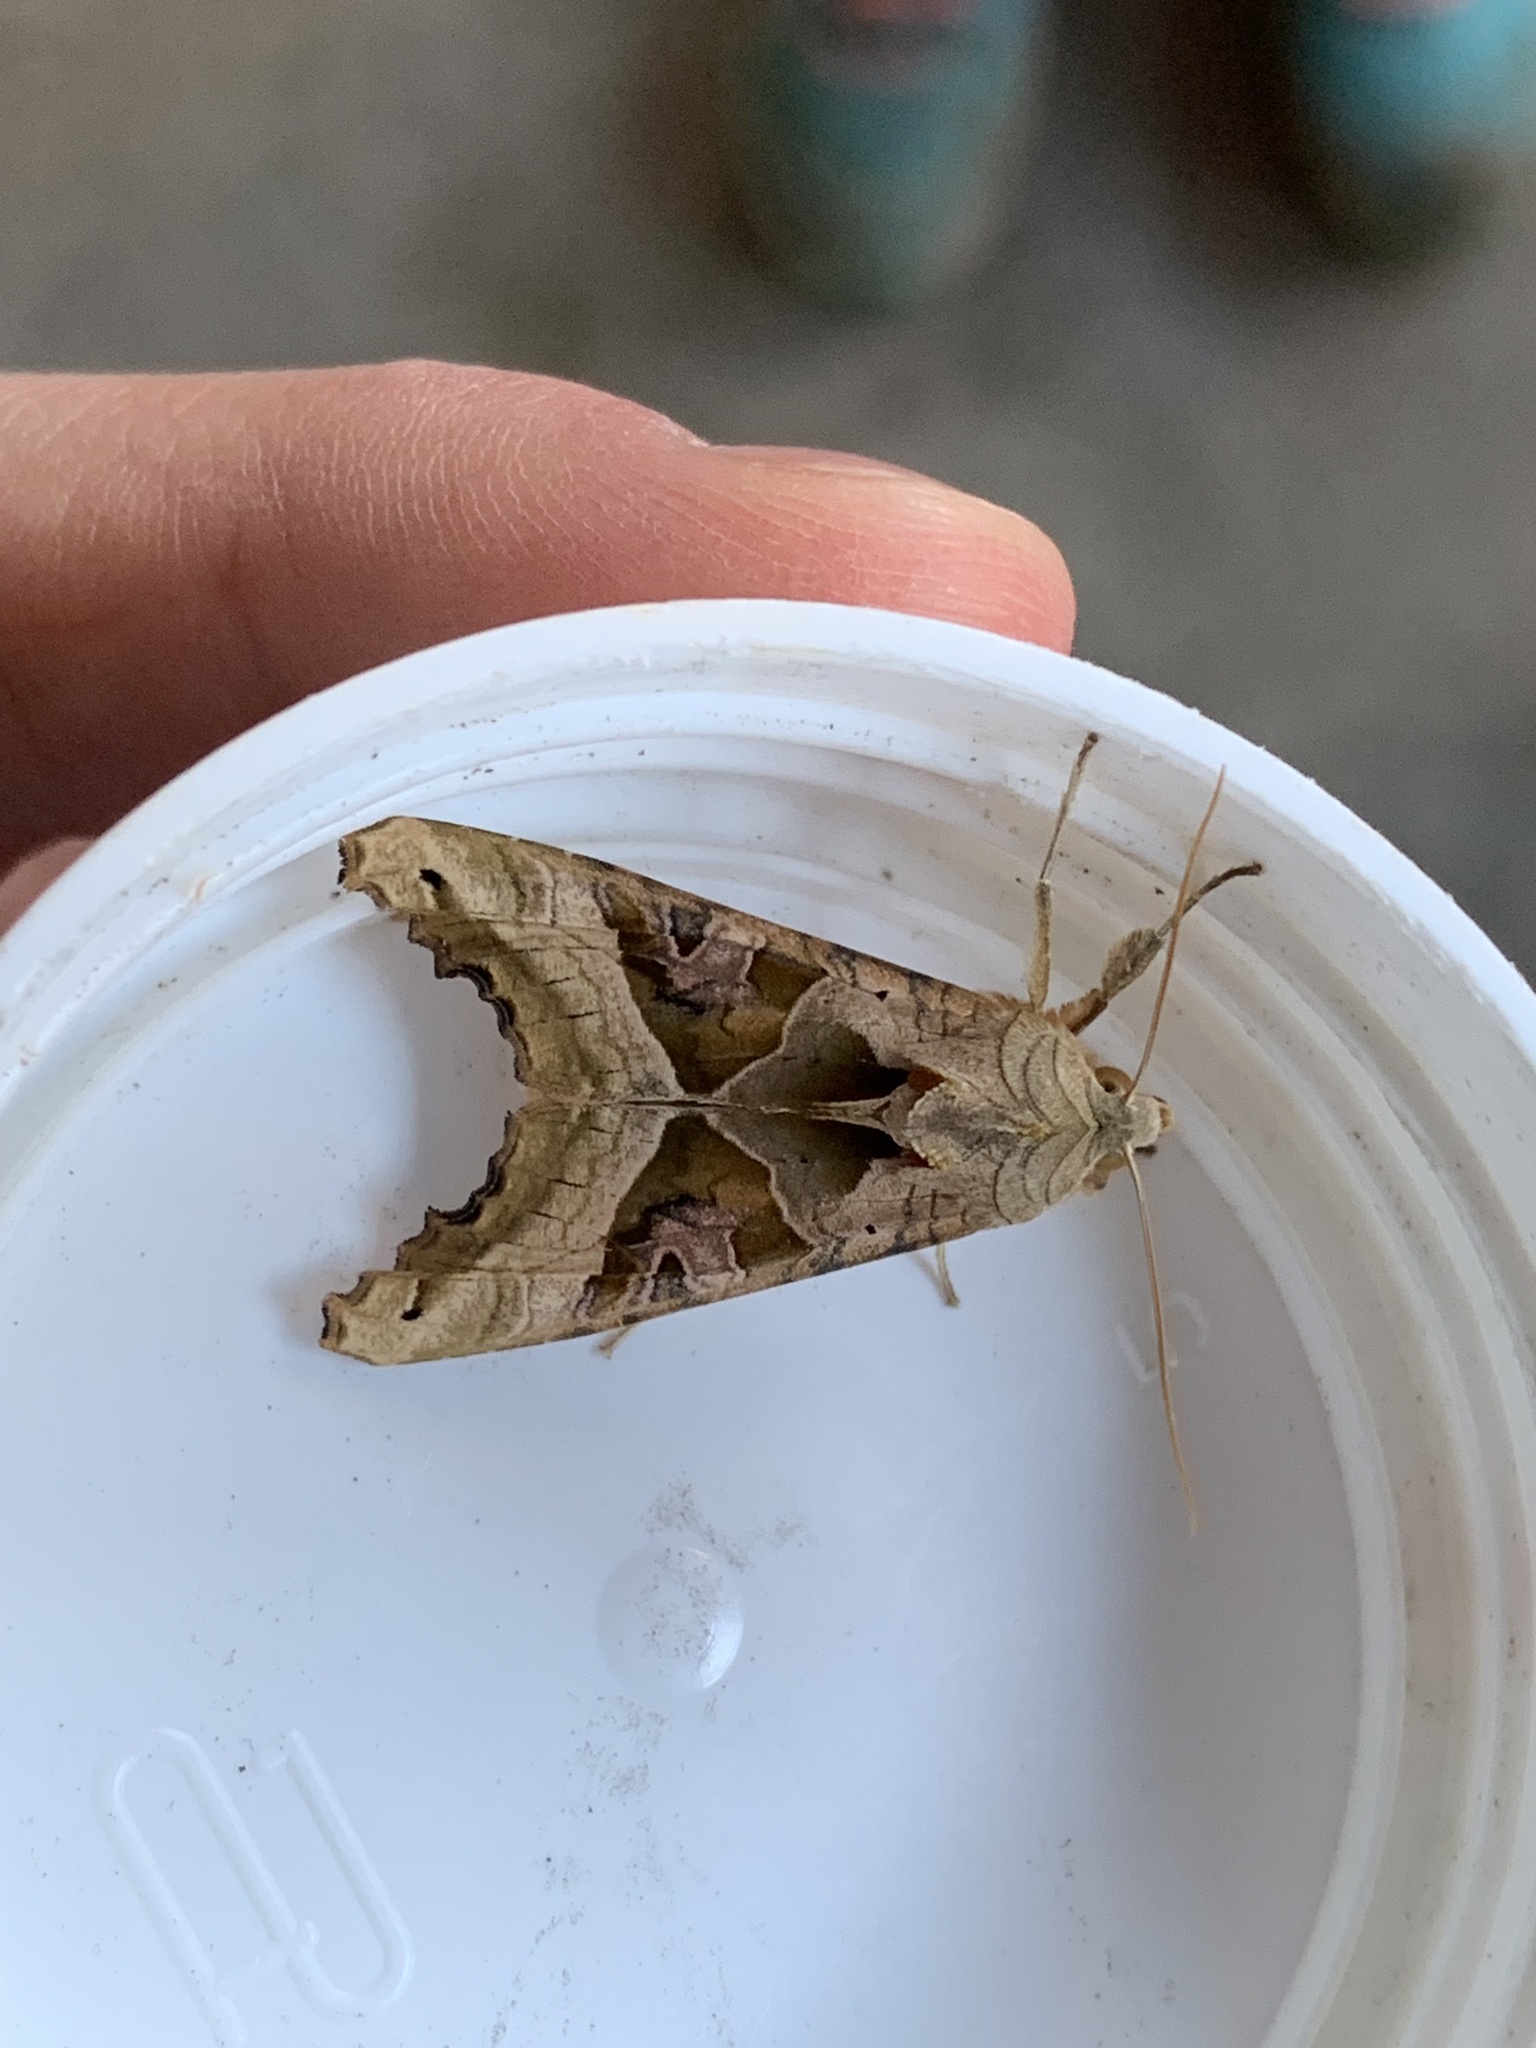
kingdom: Animalia
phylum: Arthropoda
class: Insecta
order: Lepidoptera
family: Noctuidae
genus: Phlogophora
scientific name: Phlogophora meticulosa
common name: Angle shades
